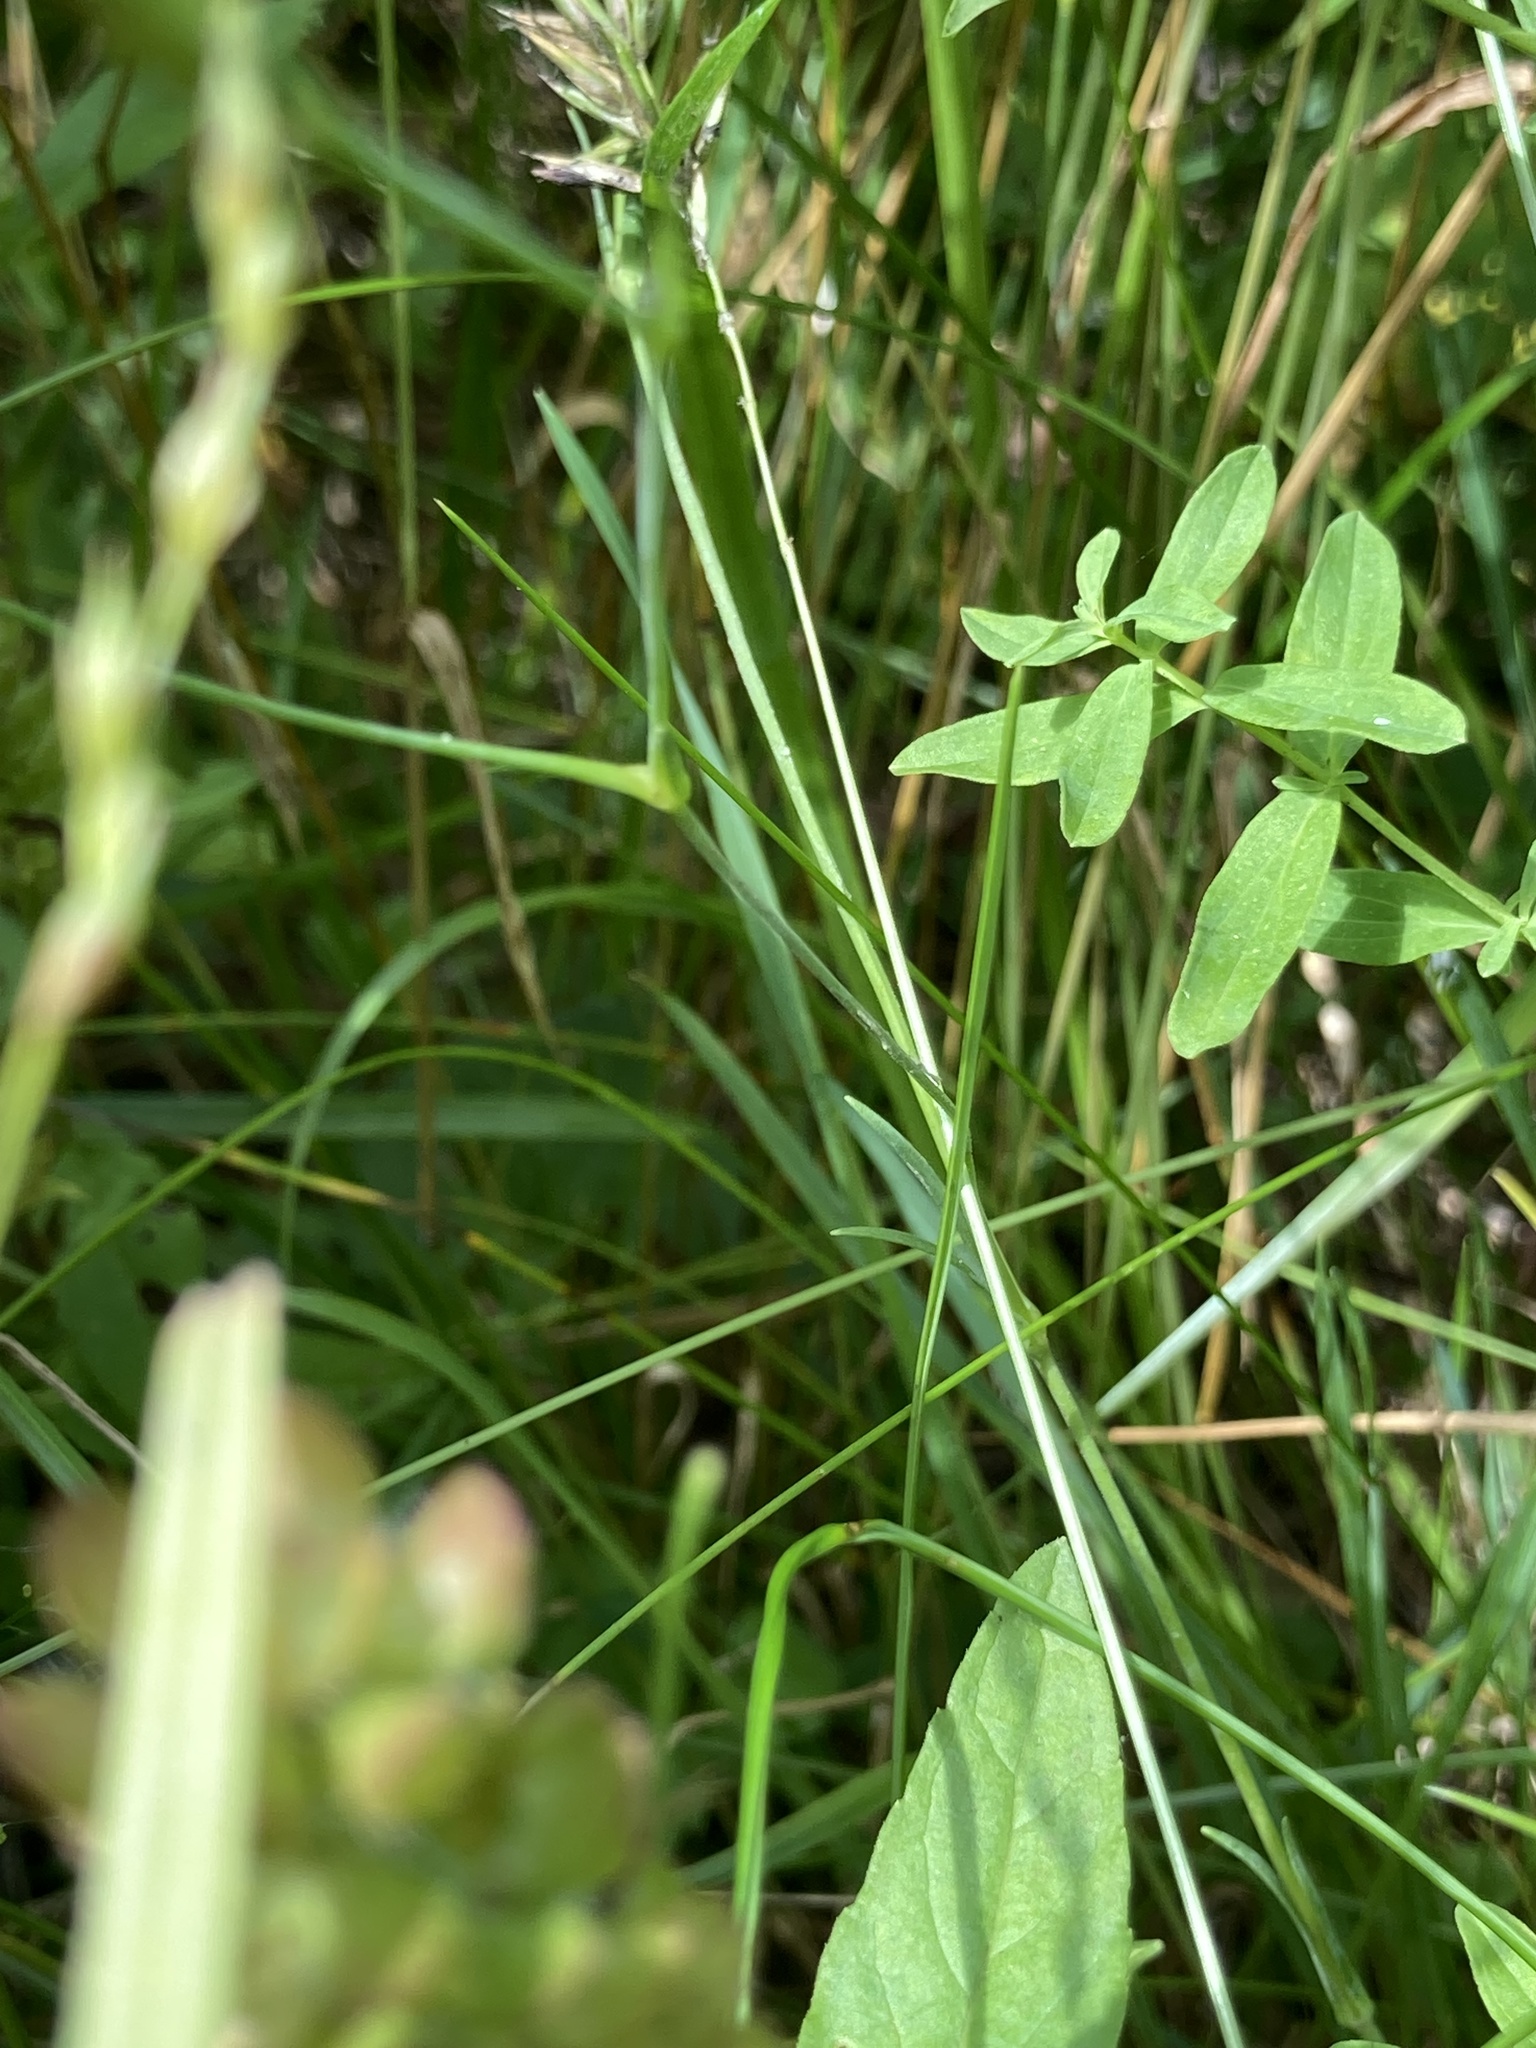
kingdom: Plantae
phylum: Tracheophyta
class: Magnoliopsida
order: Caryophyllales
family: Caryophyllaceae
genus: Dianthus
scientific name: Dianthus deltoides
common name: Maiden pink
